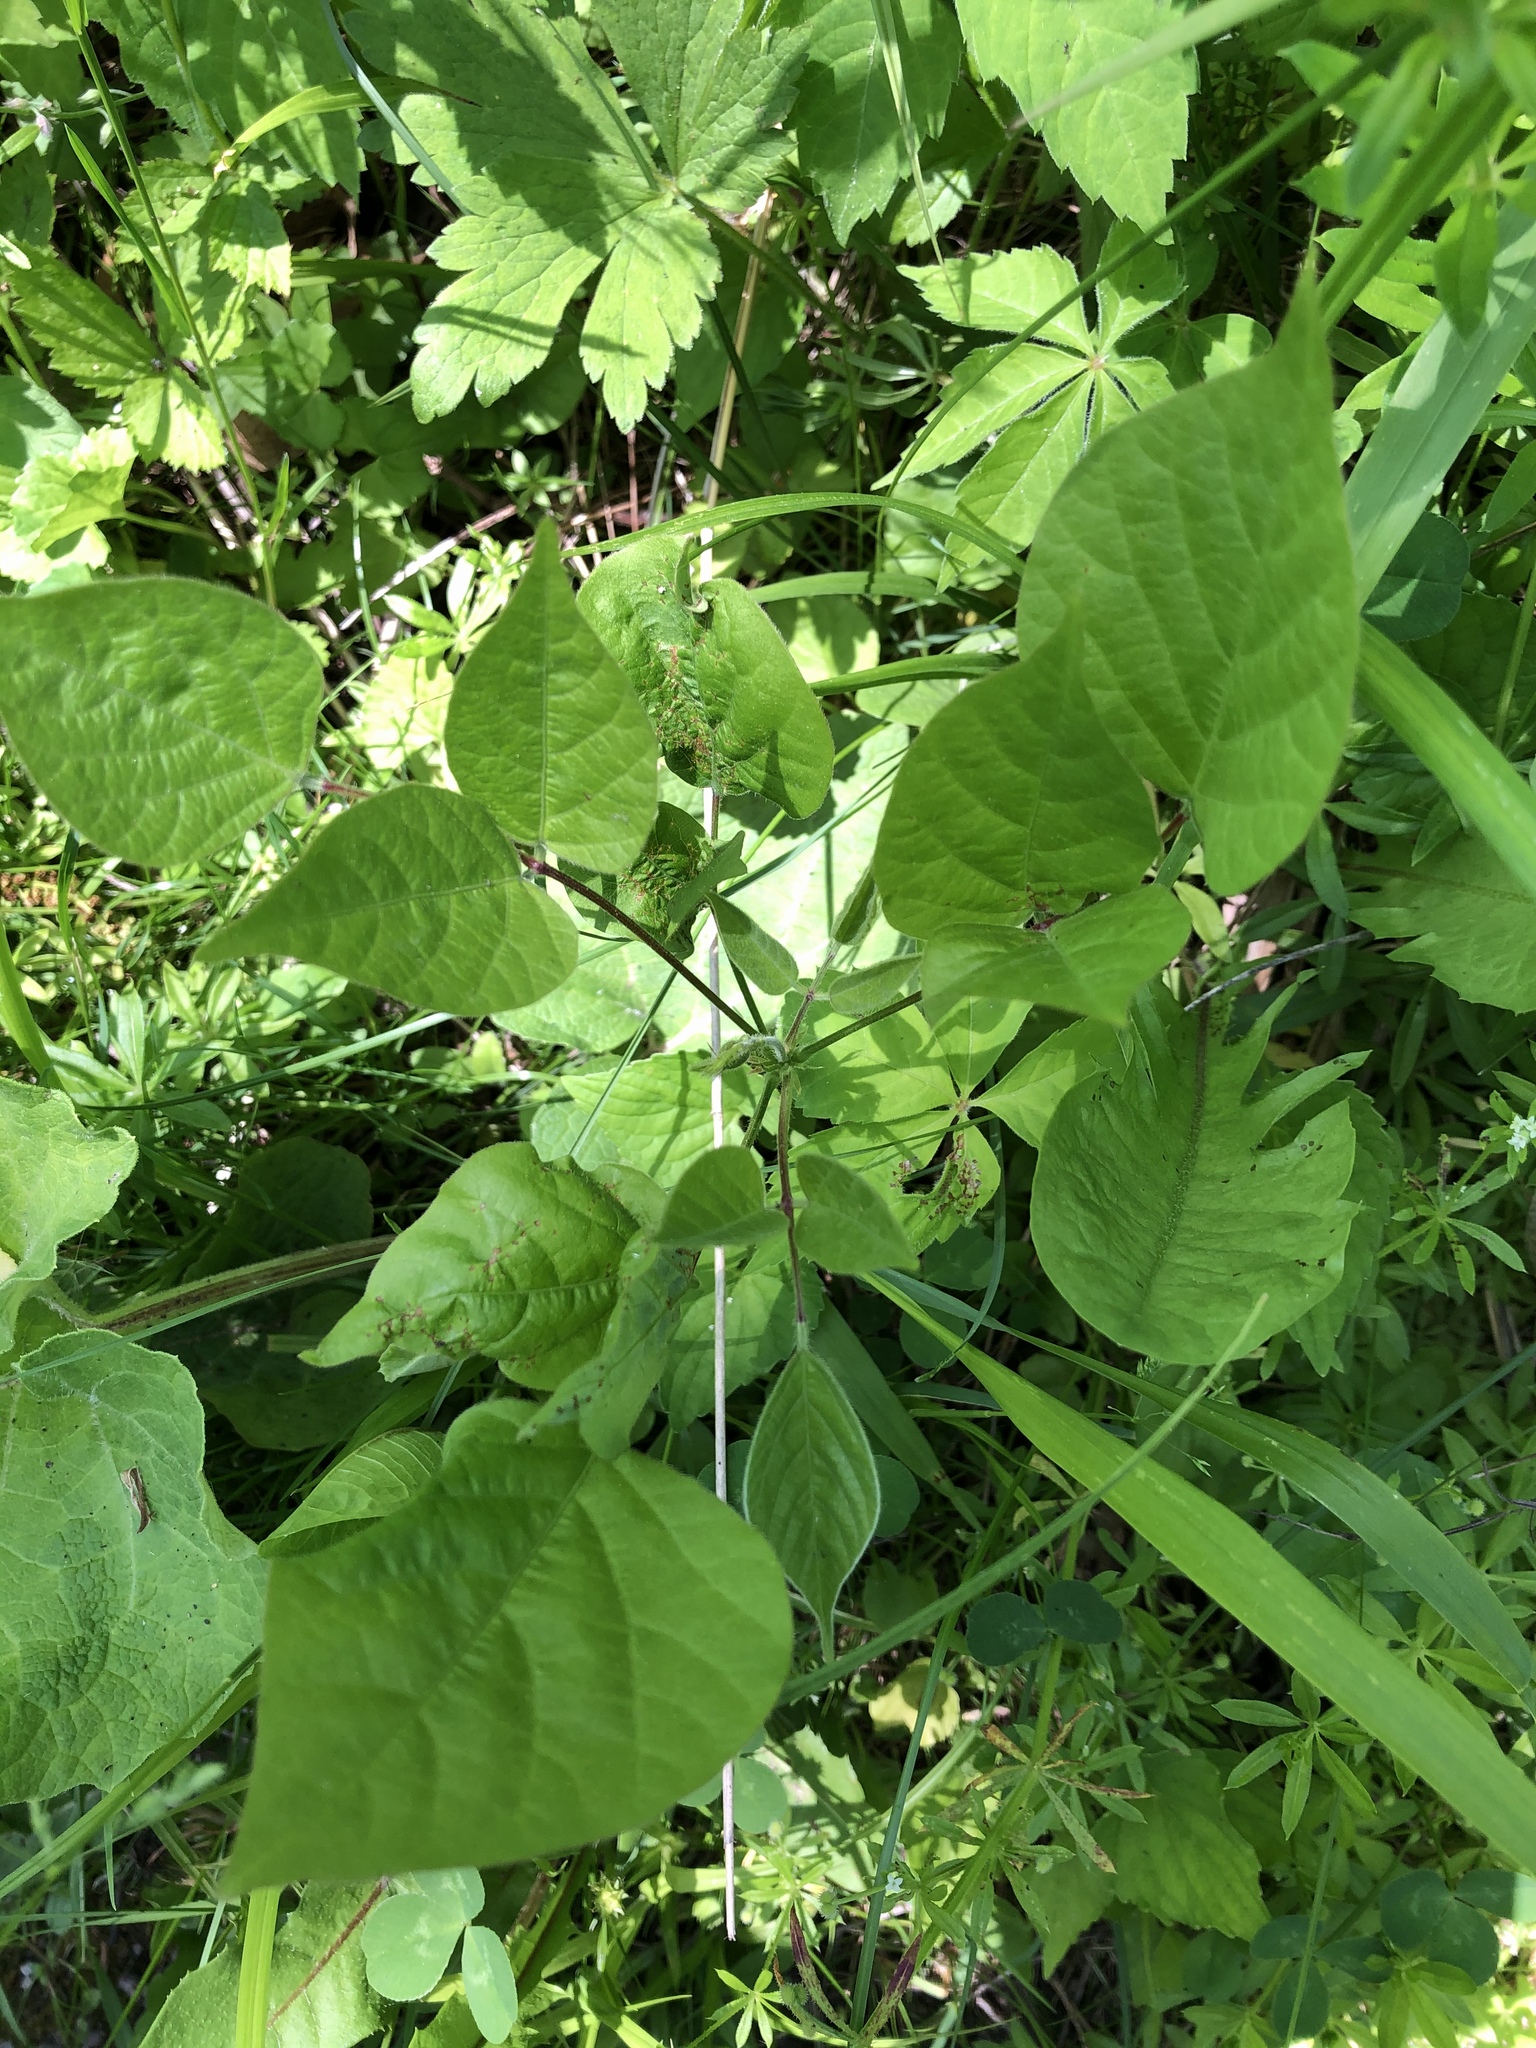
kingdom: Plantae
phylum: Tracheophyta
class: Magnoliopsida
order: Fabales
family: Fabaceae
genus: Hylodesmum
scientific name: Hylodesmum glutinosum
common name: Clustered-leaved tick-trefoil
